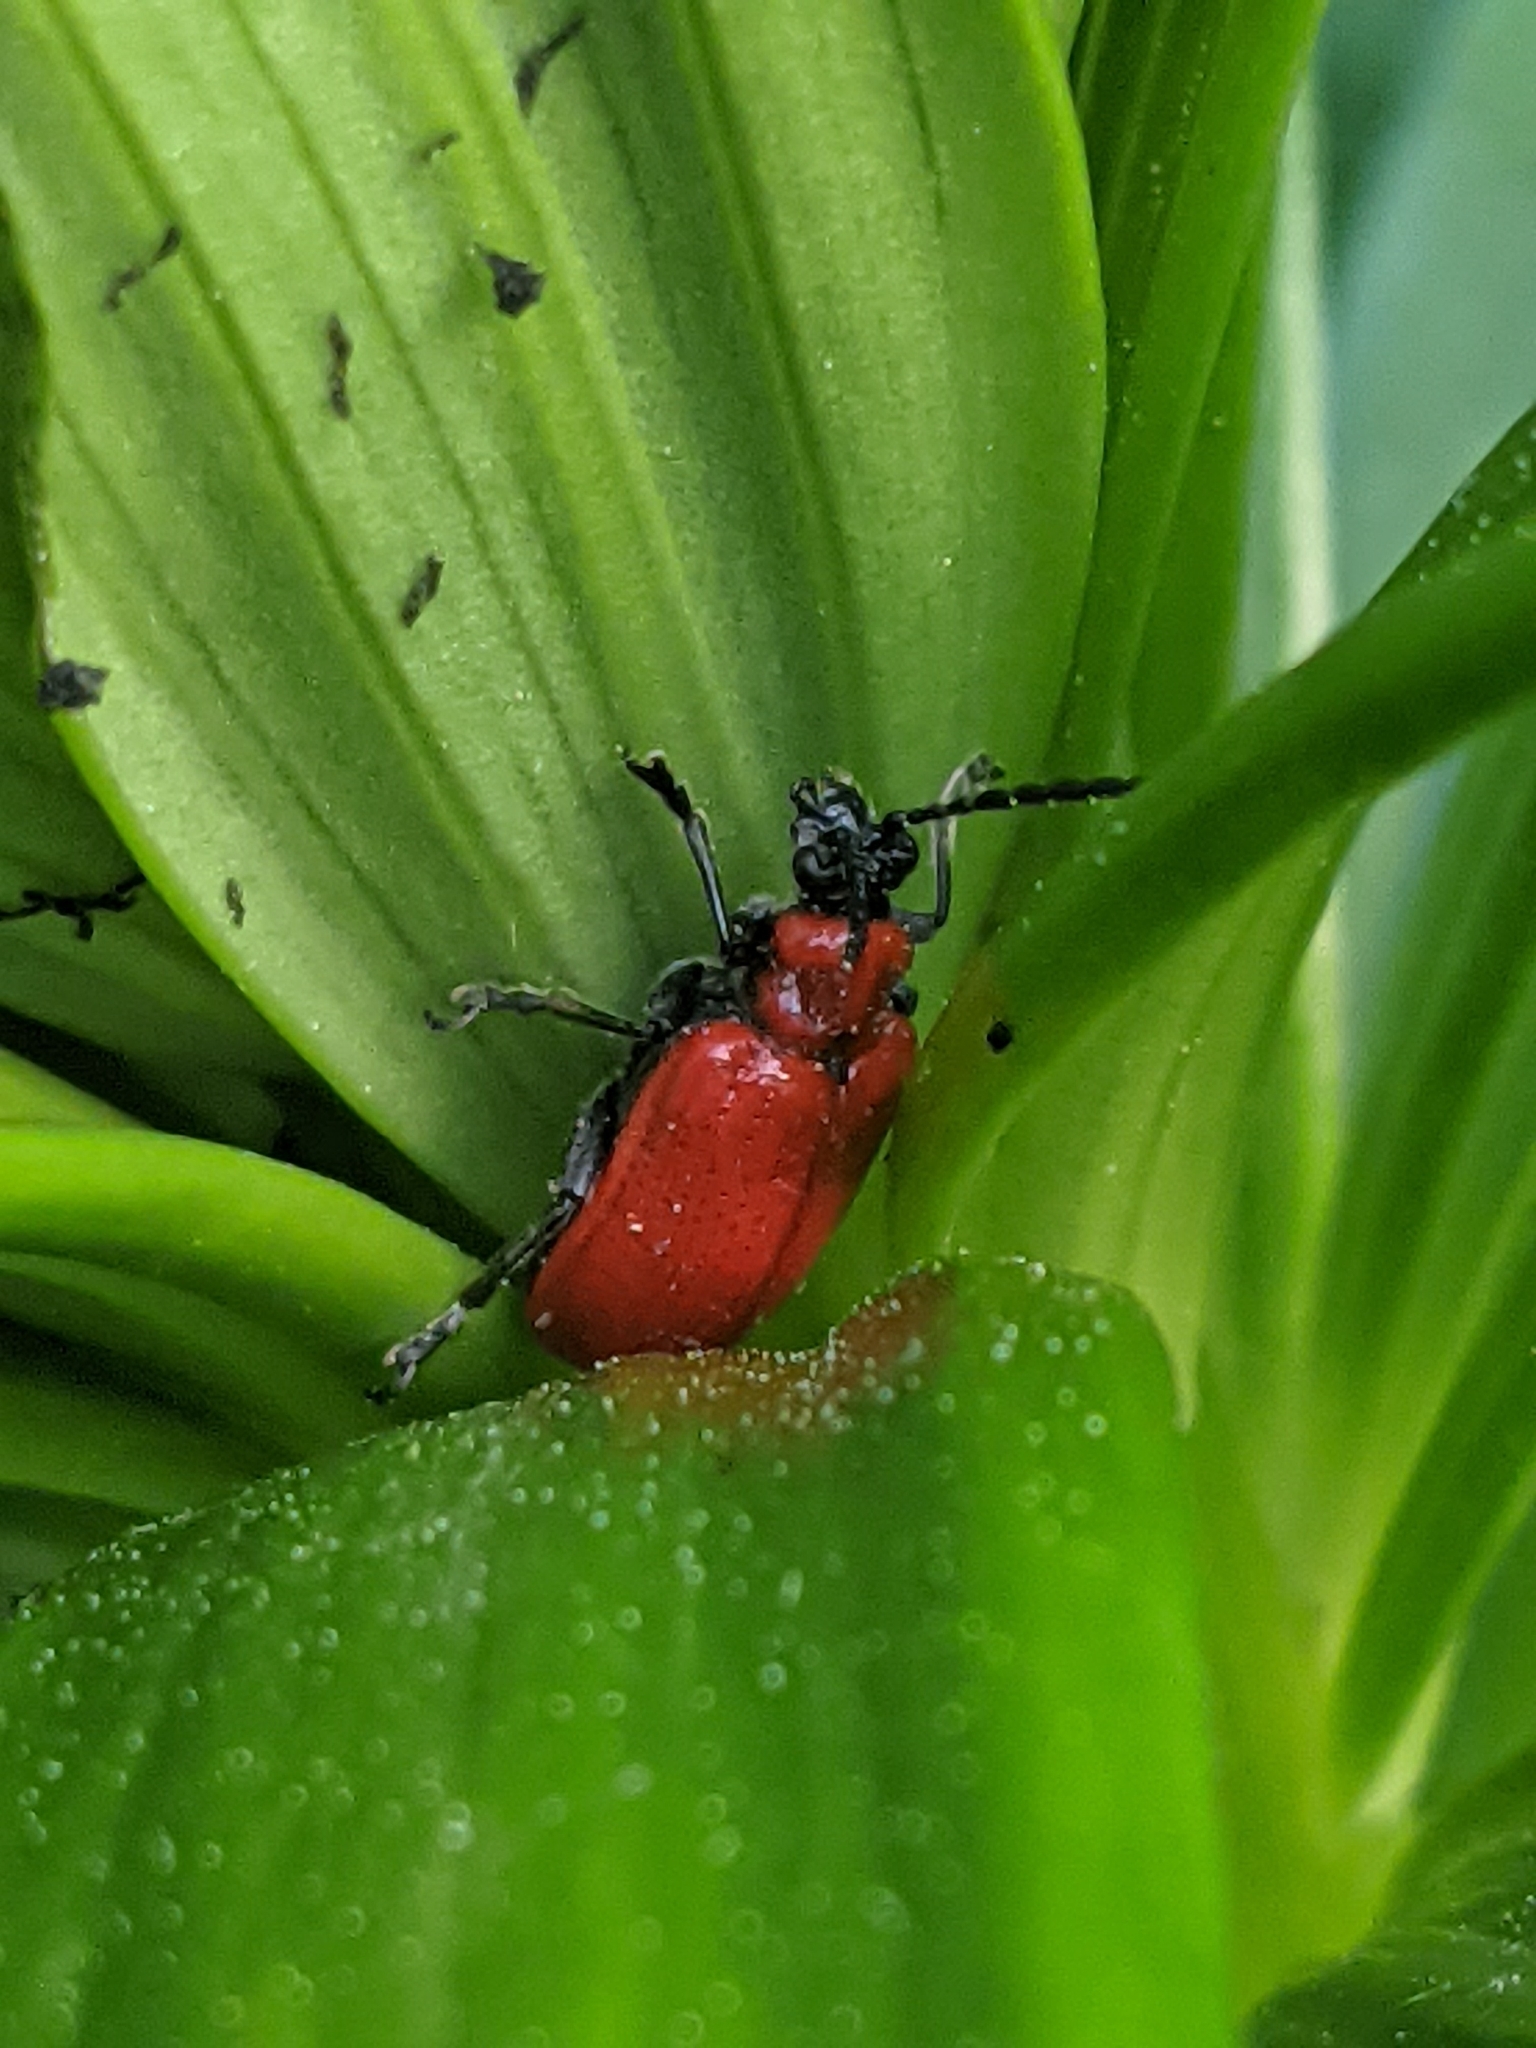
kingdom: Animalia
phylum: Arthropoda
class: Insecta
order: Coleoptera
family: Chrysomelidae
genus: Lilioceris
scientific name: Lilioceris lilii
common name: Lily beetle
